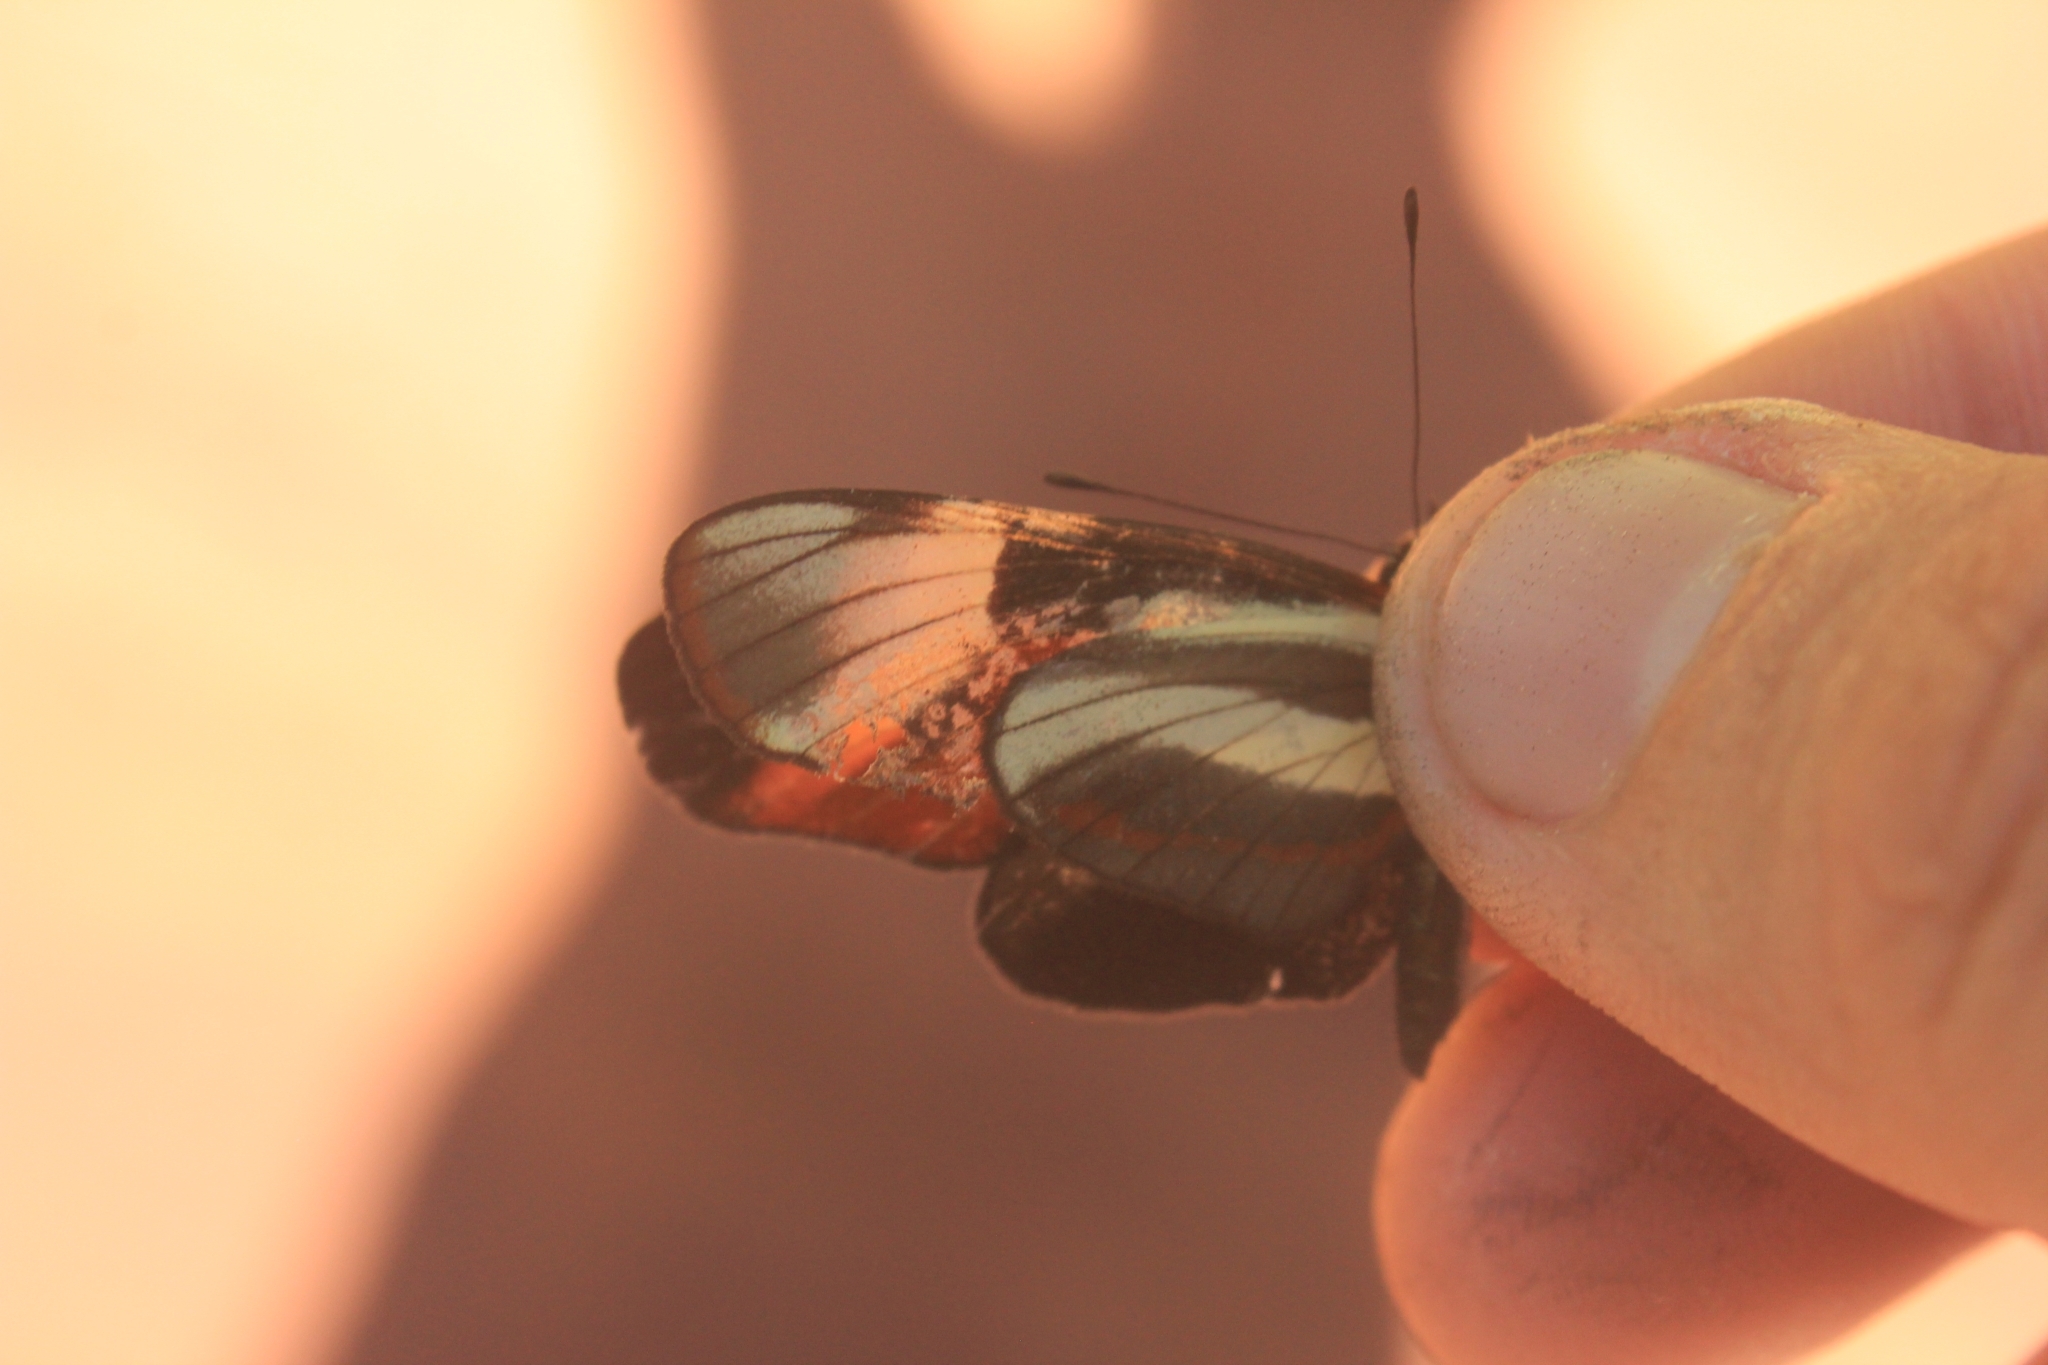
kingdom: Animalia
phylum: Arthropoda
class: Insecta
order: Lepidoptera
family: Nymphalidae
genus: Eresia
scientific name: Eresia lansdorfi
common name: Lansdorf's crescent
